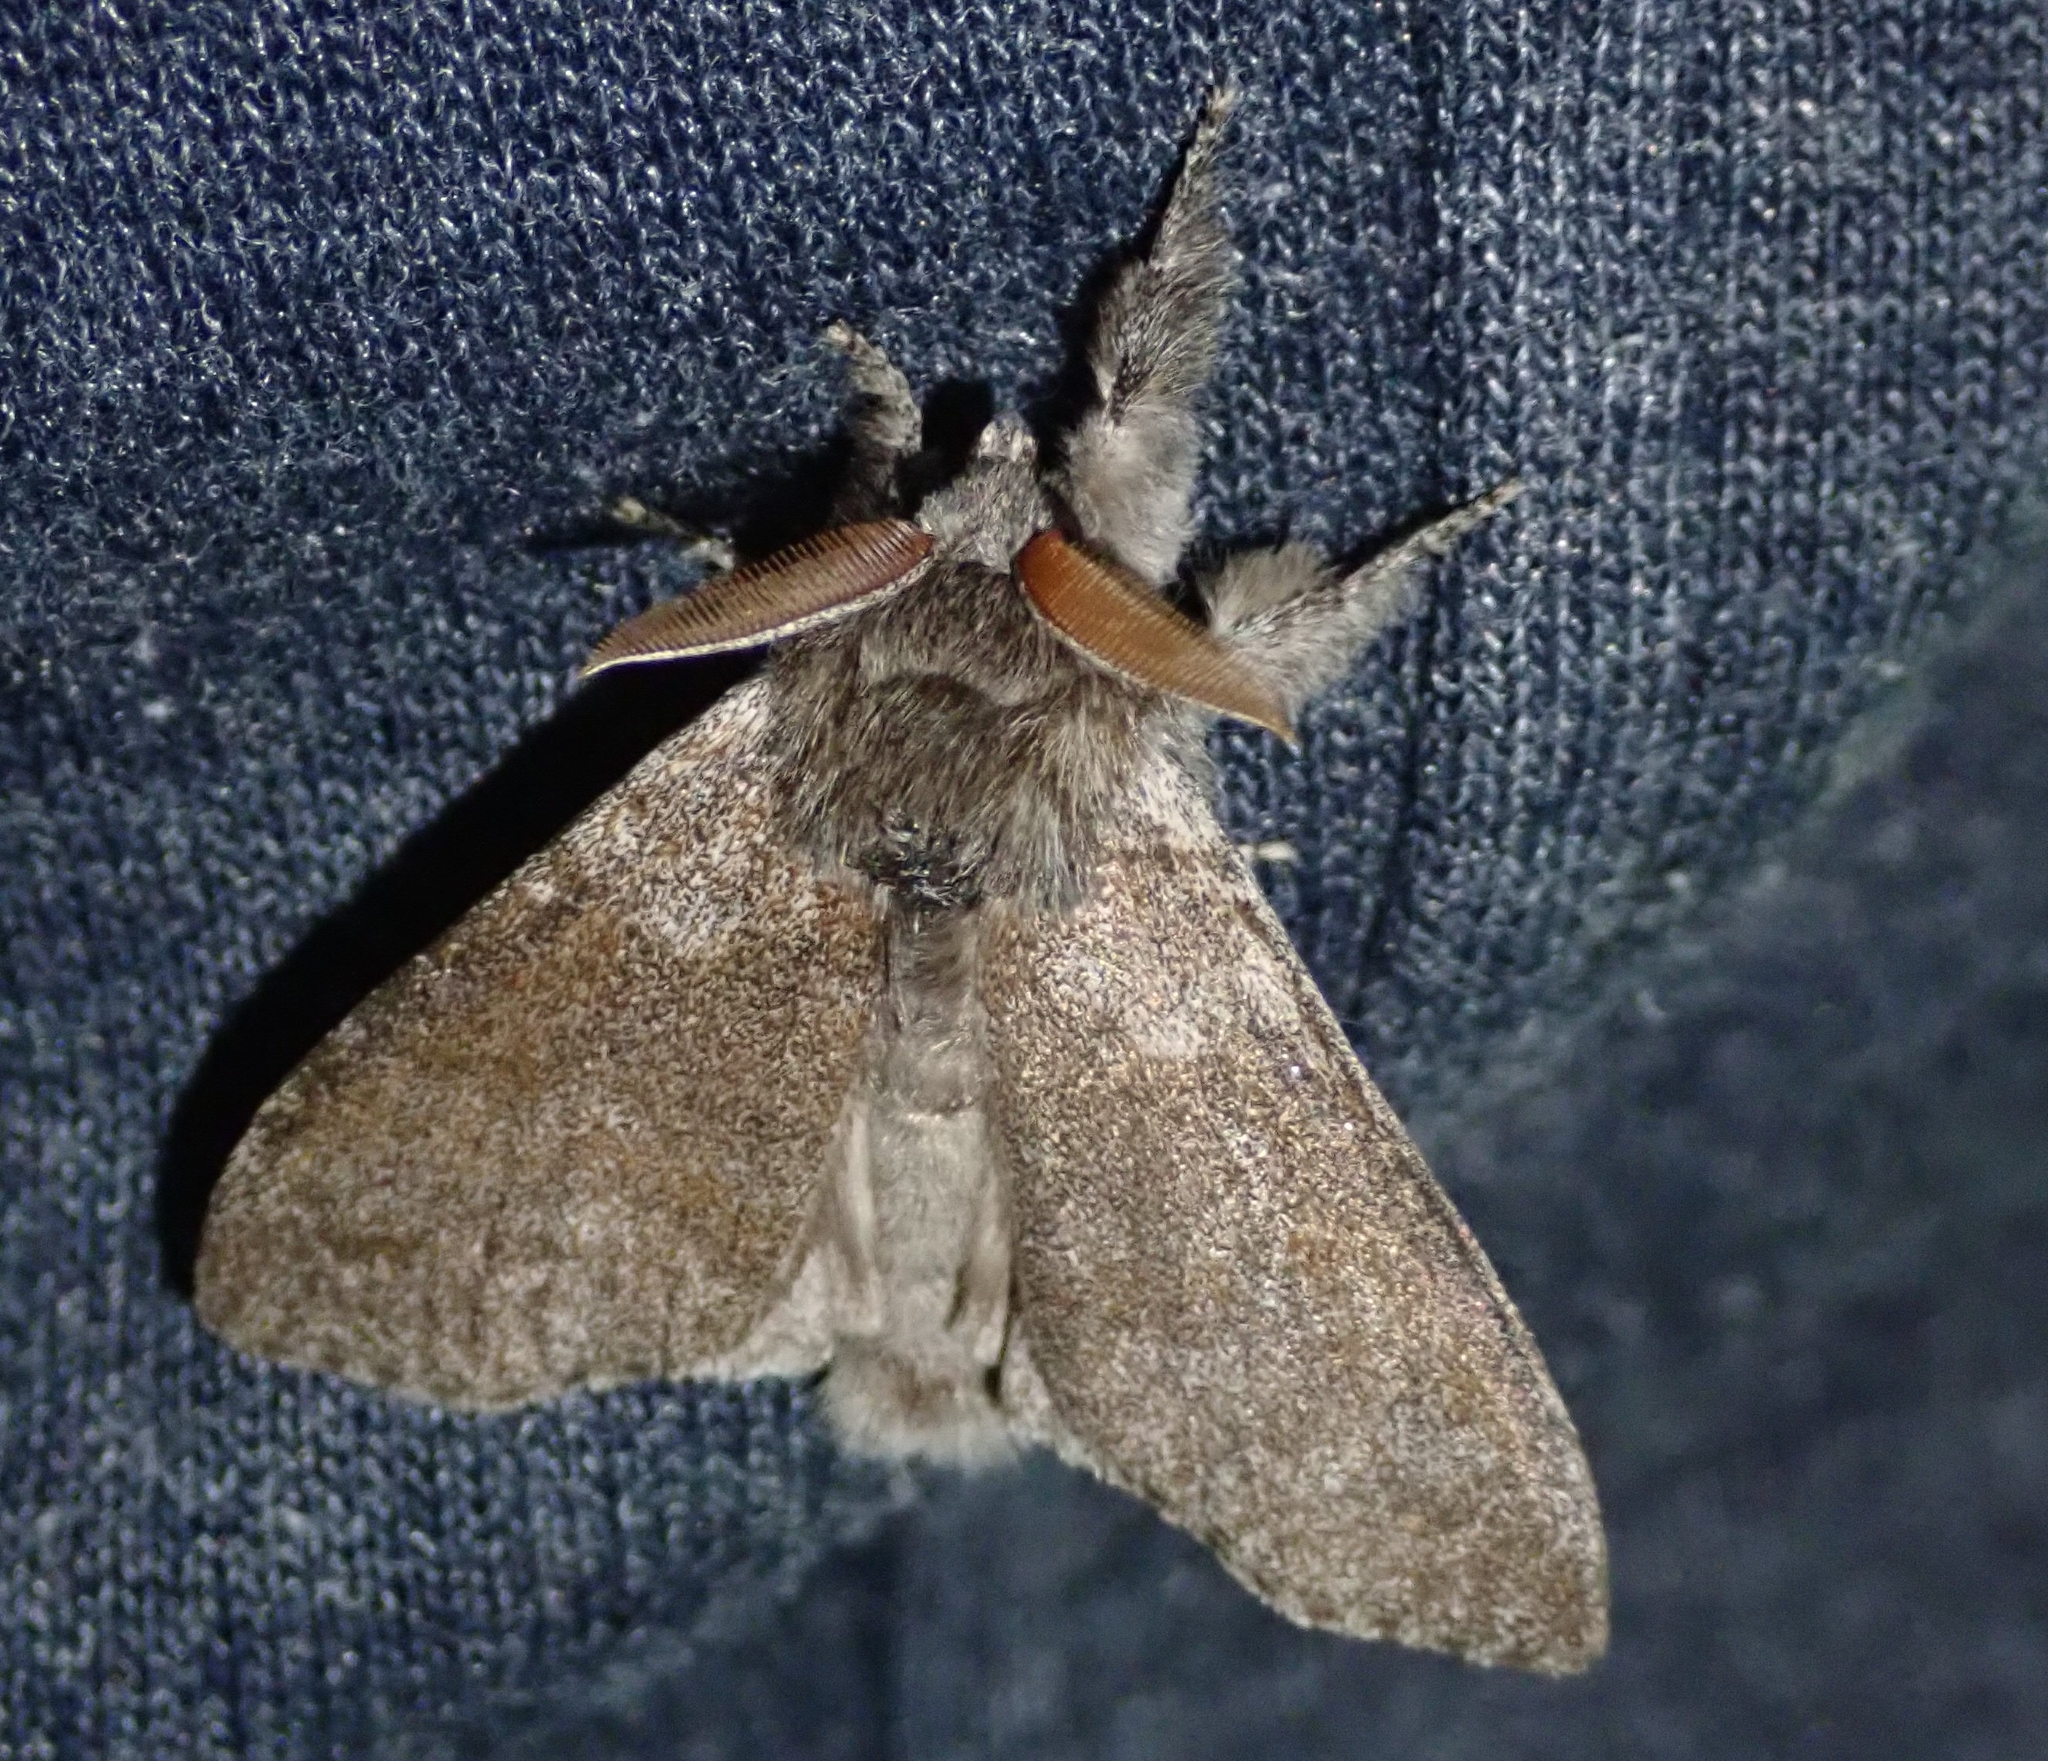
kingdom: Animalia
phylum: Arthropoda
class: Insecta
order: Lepidoptera
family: Erebidae
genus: Calliteara
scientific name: Calliteara pudibunda
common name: Pale tussock
